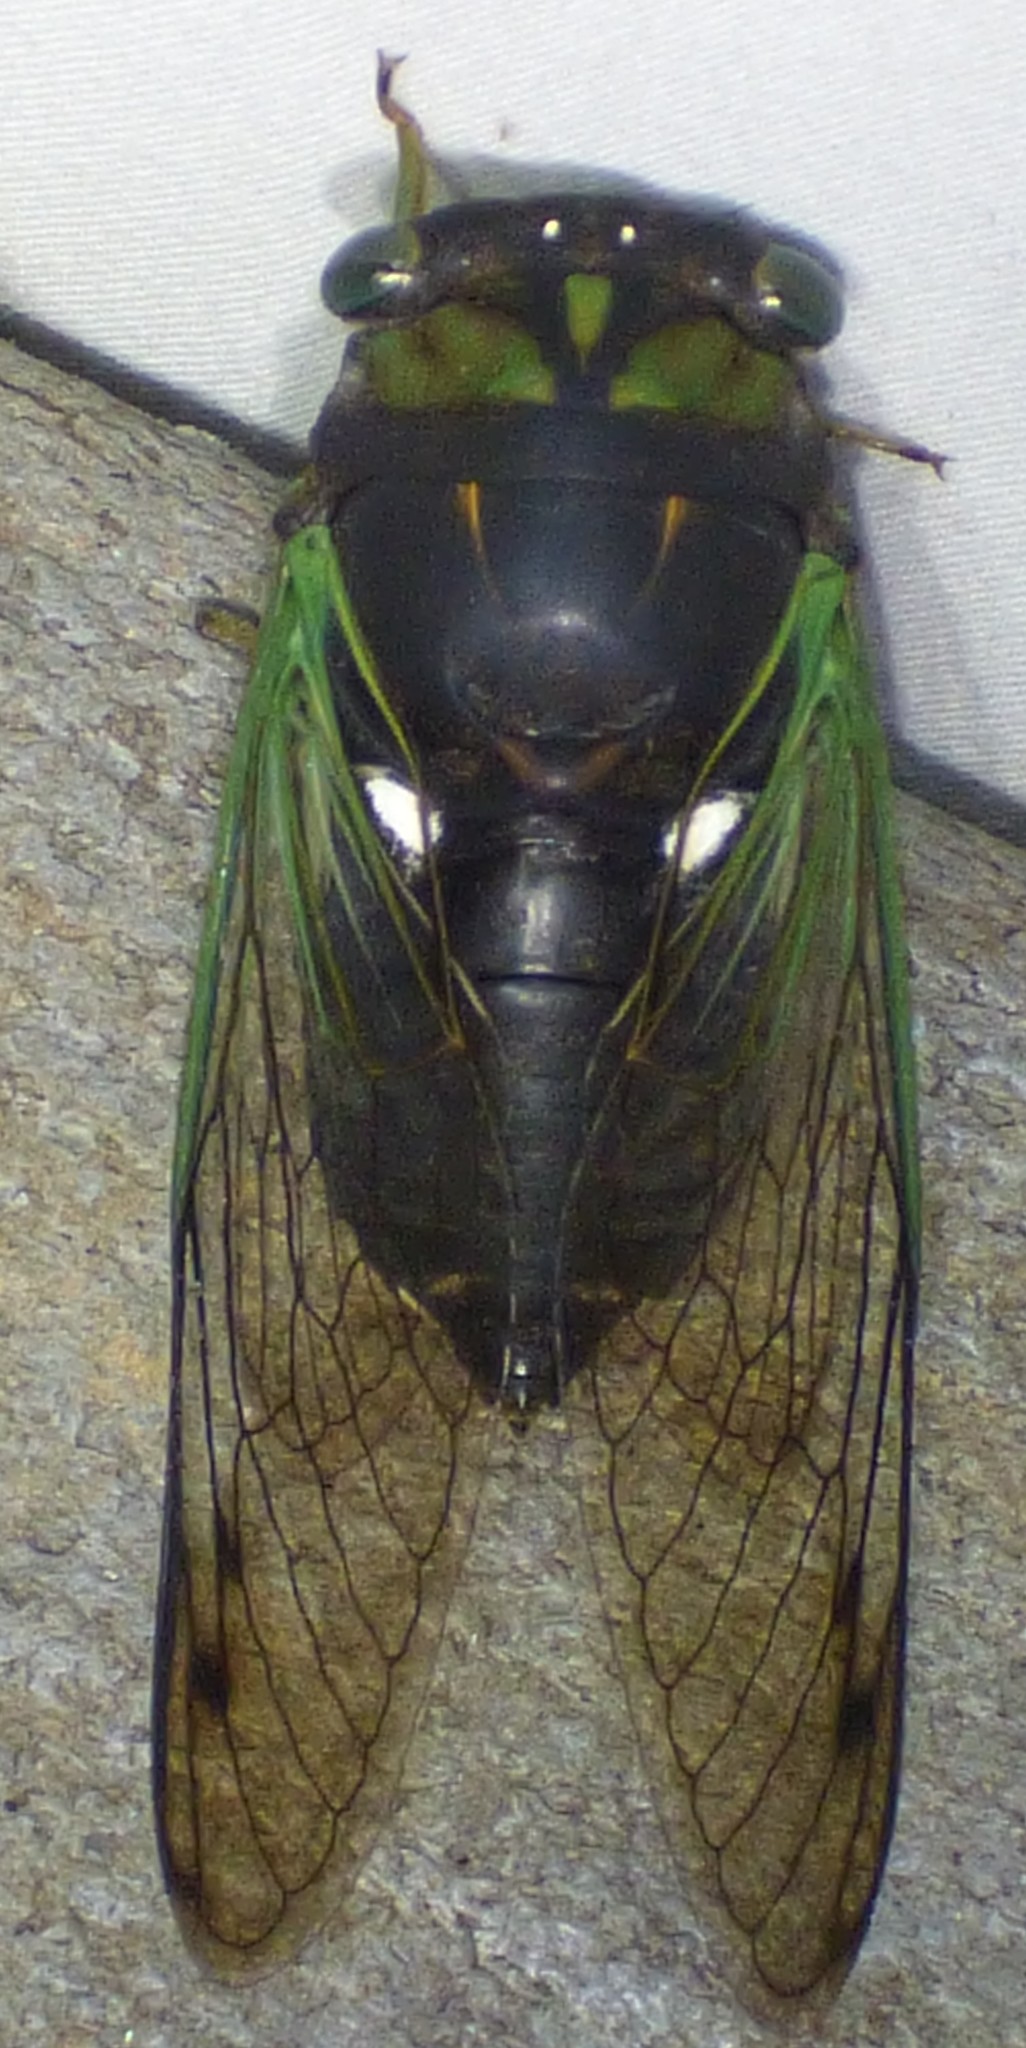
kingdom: Animalia
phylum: Arthropoda
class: Insecta
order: Hemiptera
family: Cicadidae
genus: Neotibicen
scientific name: Neotibicen tibicen
